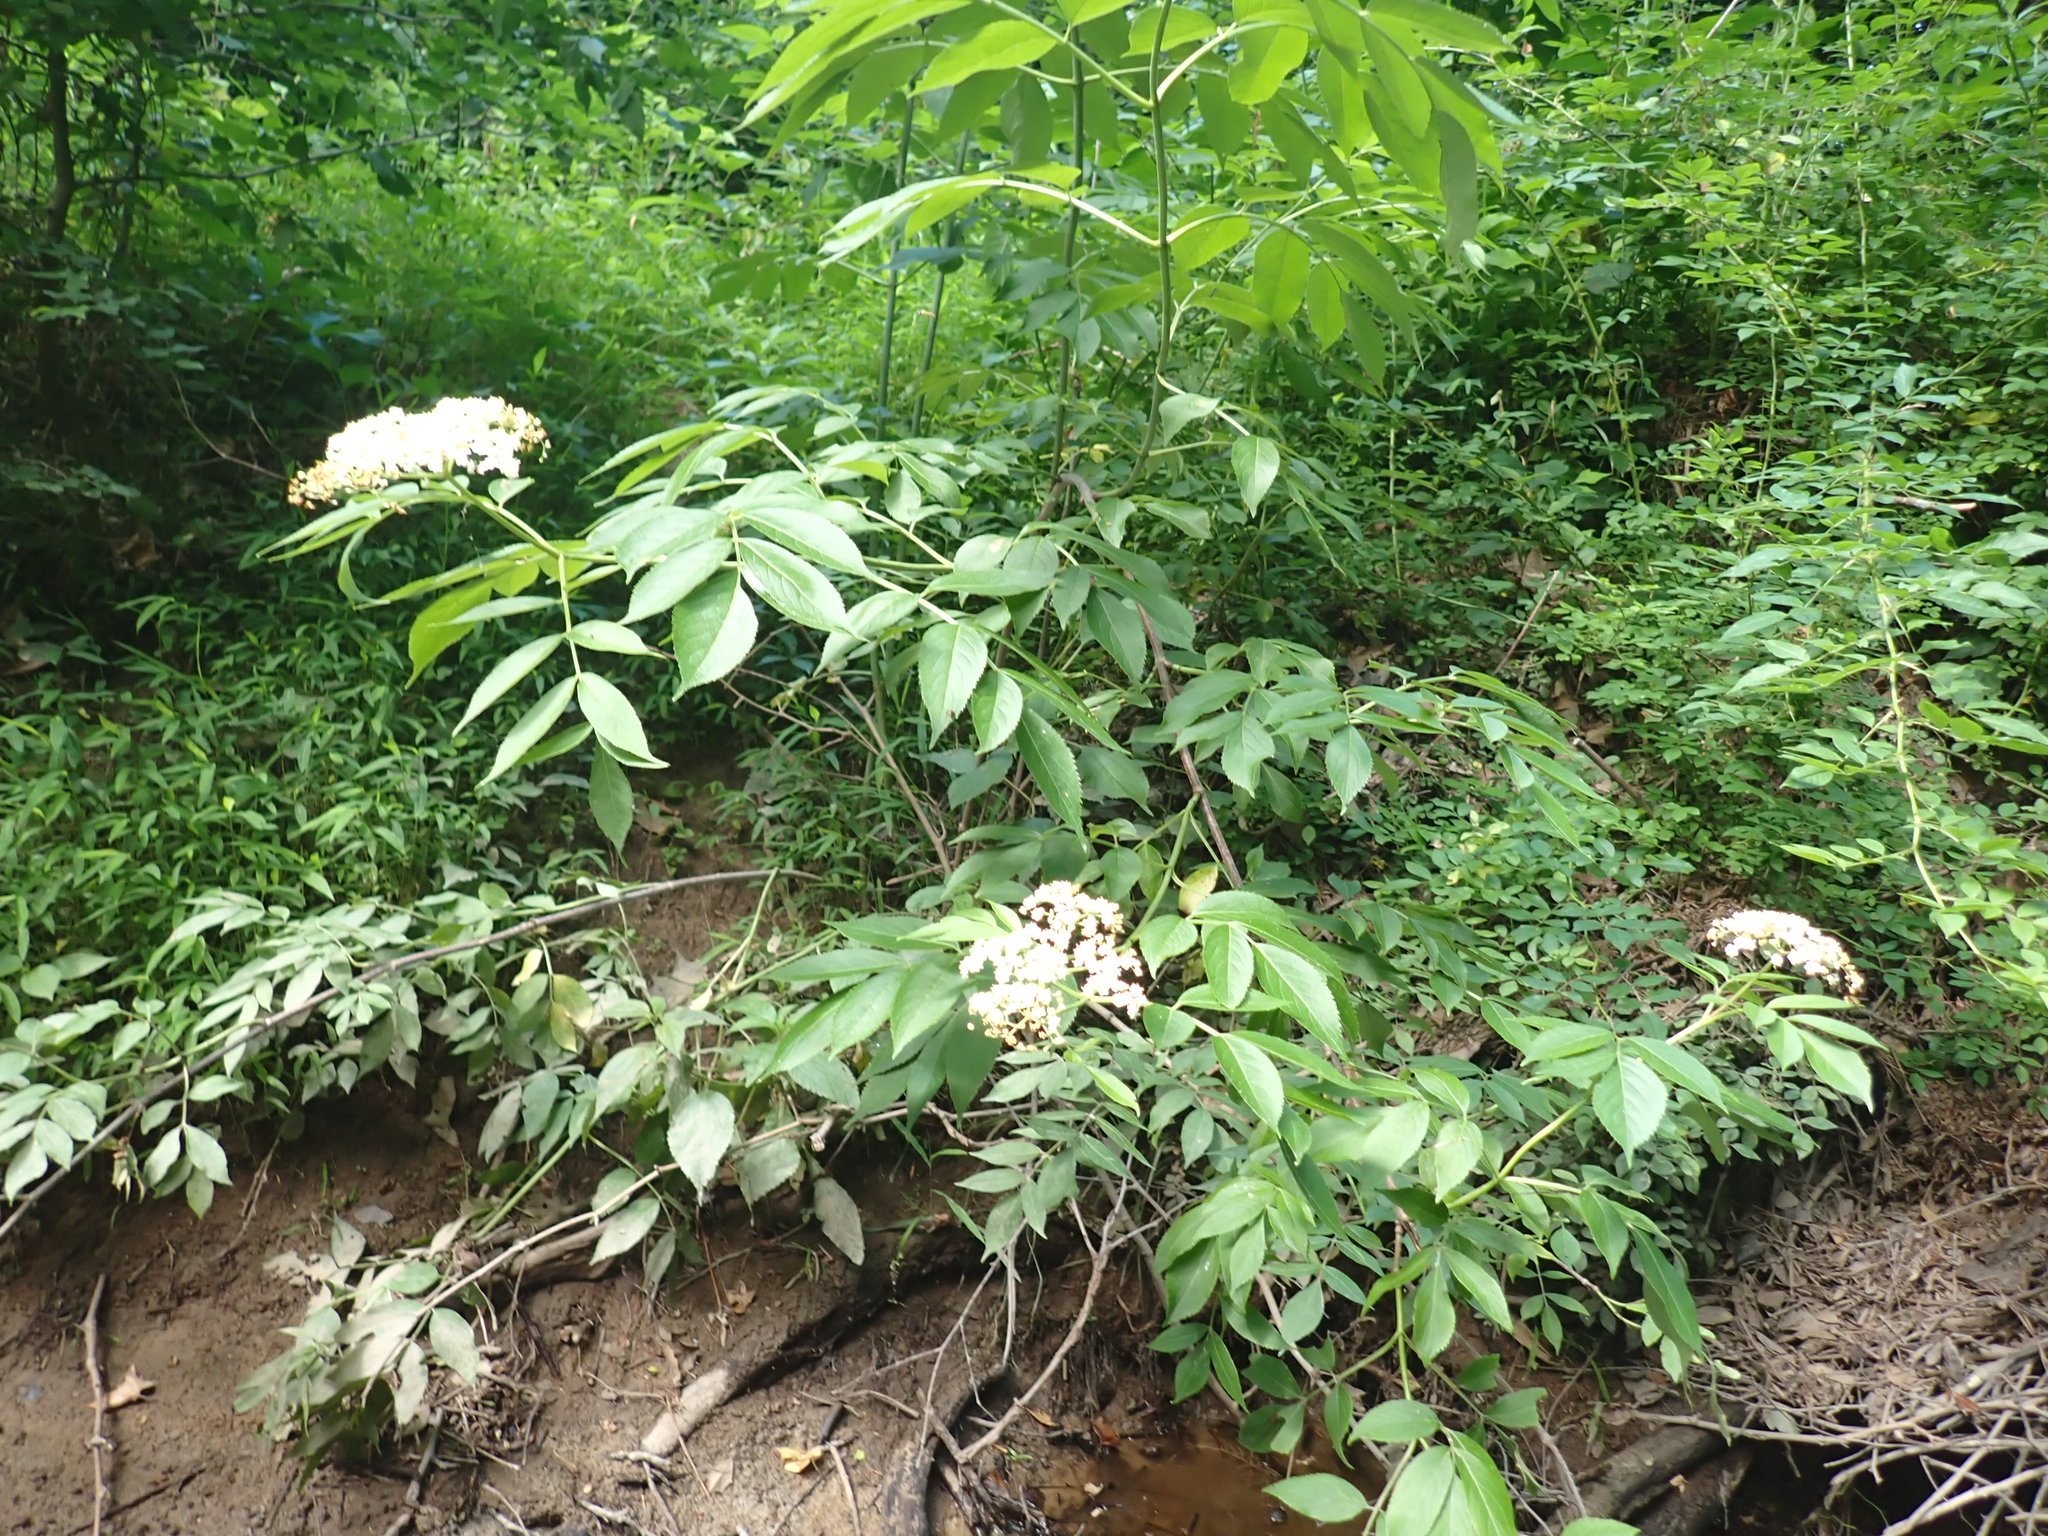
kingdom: Plantae
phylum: Tracheophyta
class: Magnoliopsida
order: Dipsacales
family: Viburnaceae
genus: Sambucus
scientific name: Sambucus canadensis
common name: American elder
